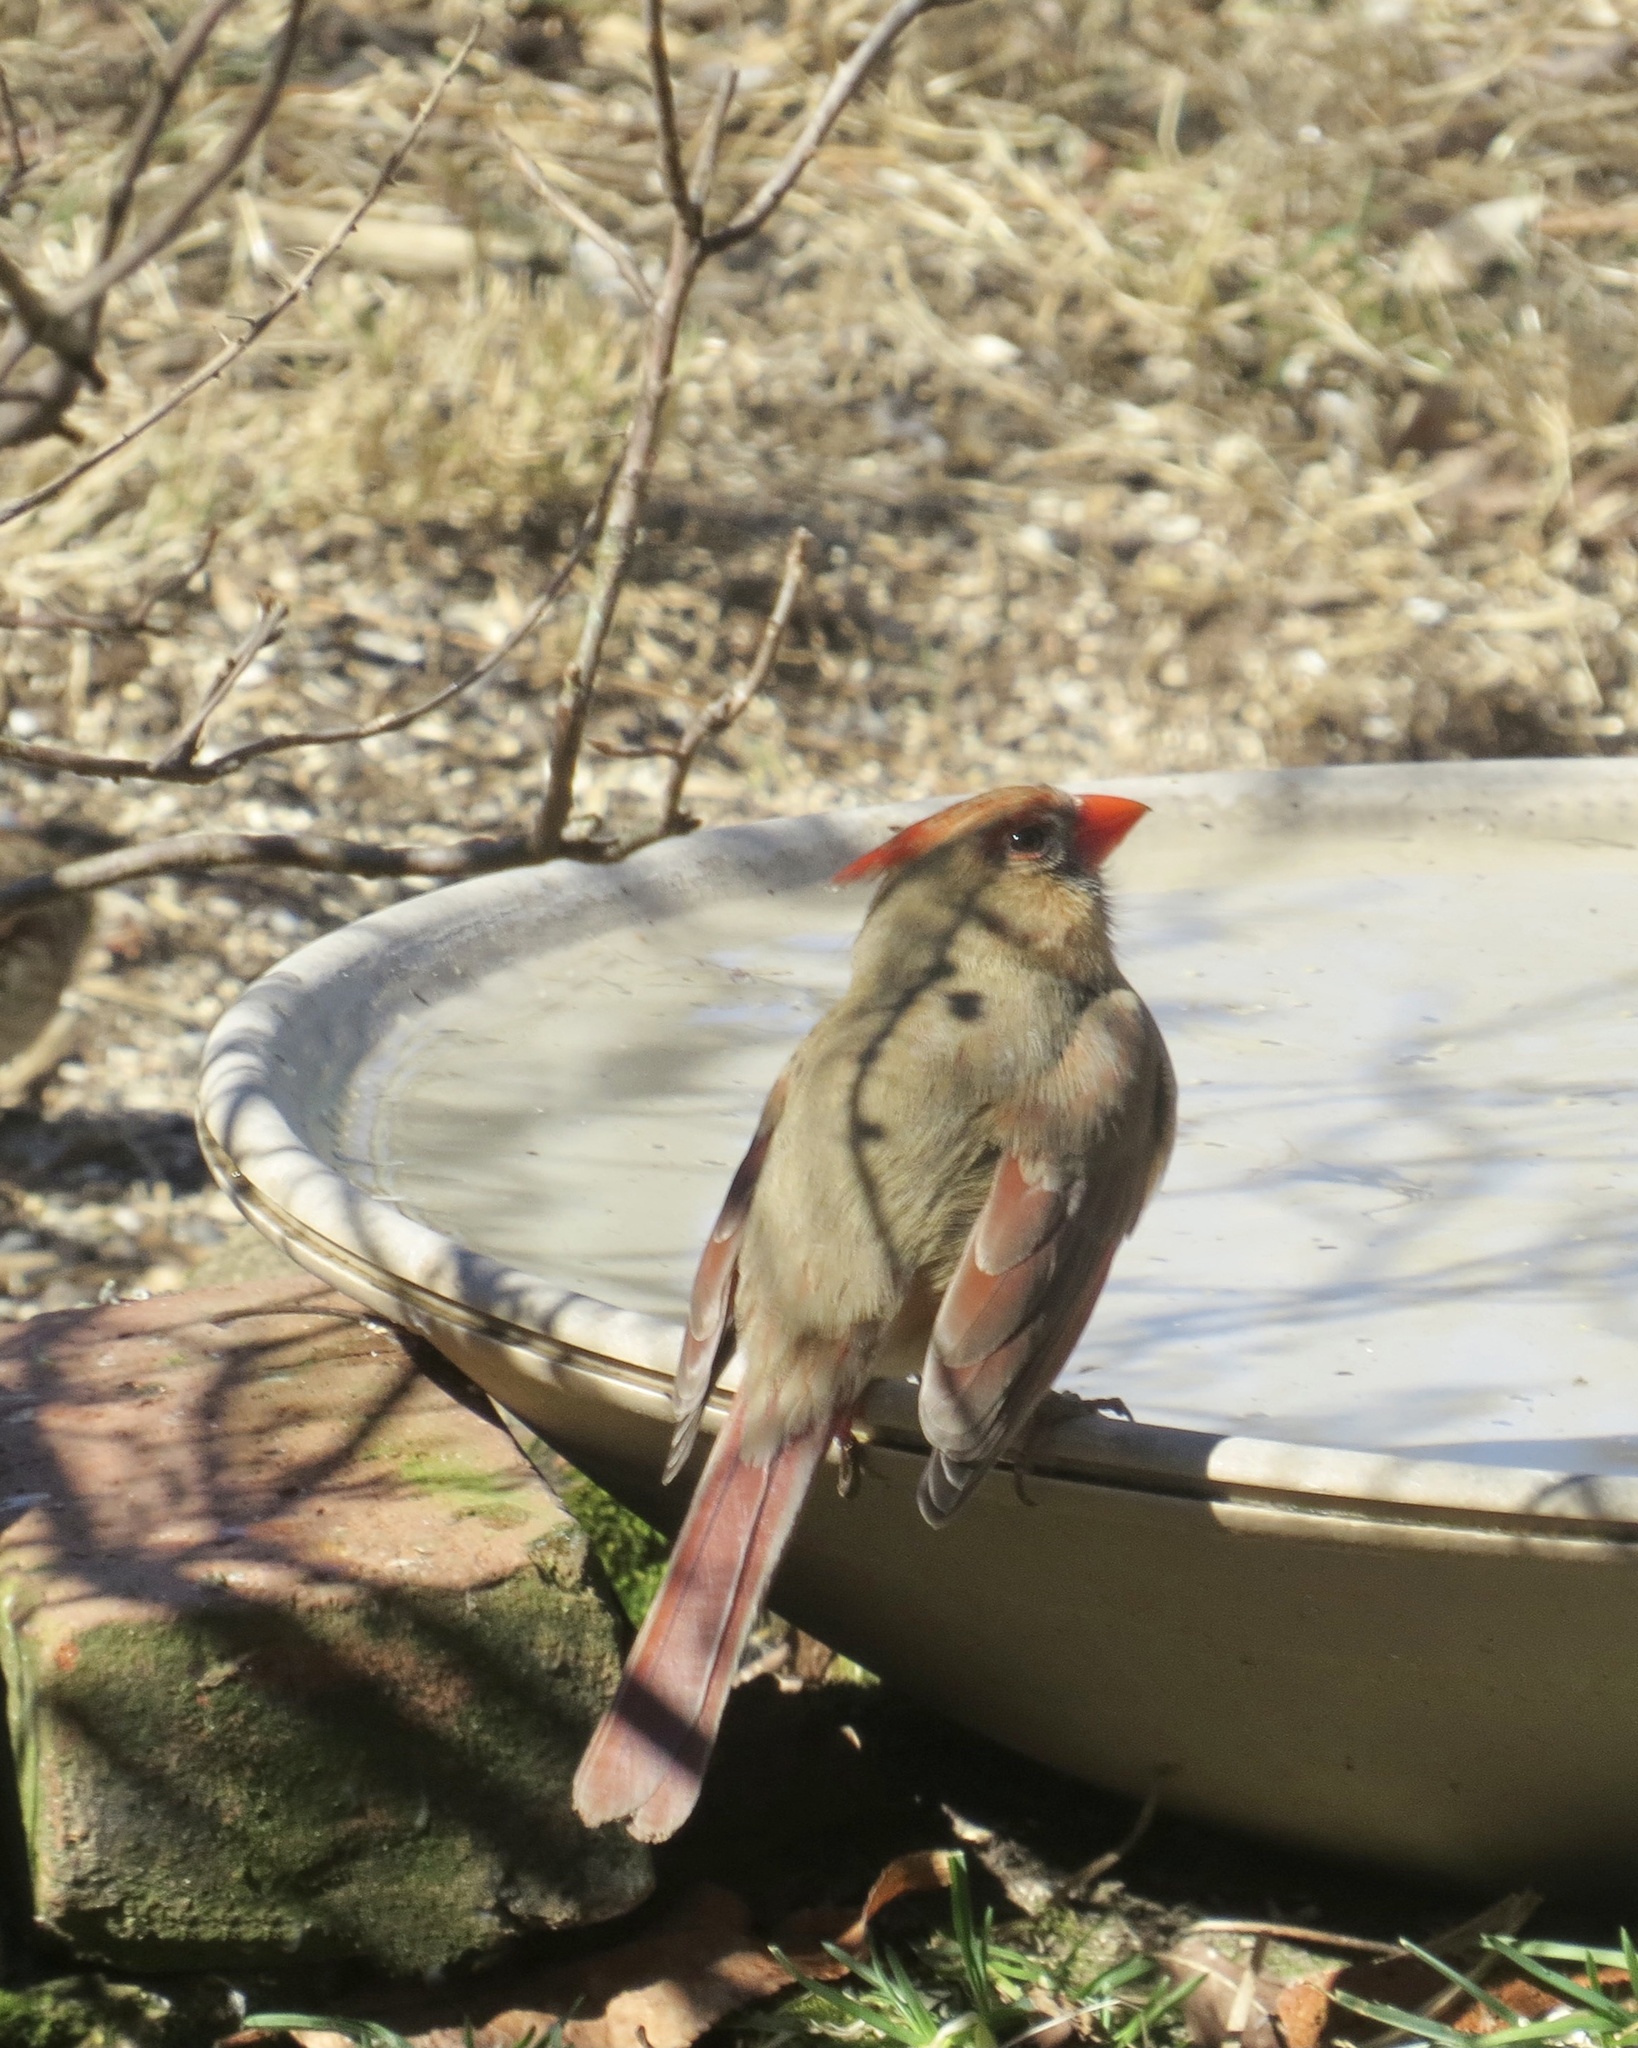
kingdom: Animalia
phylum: Chordata
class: Aves
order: Passeriformes
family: Cardinalidae
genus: Cardinalis
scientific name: Cardinalis cardinalis
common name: Northern cardinal
